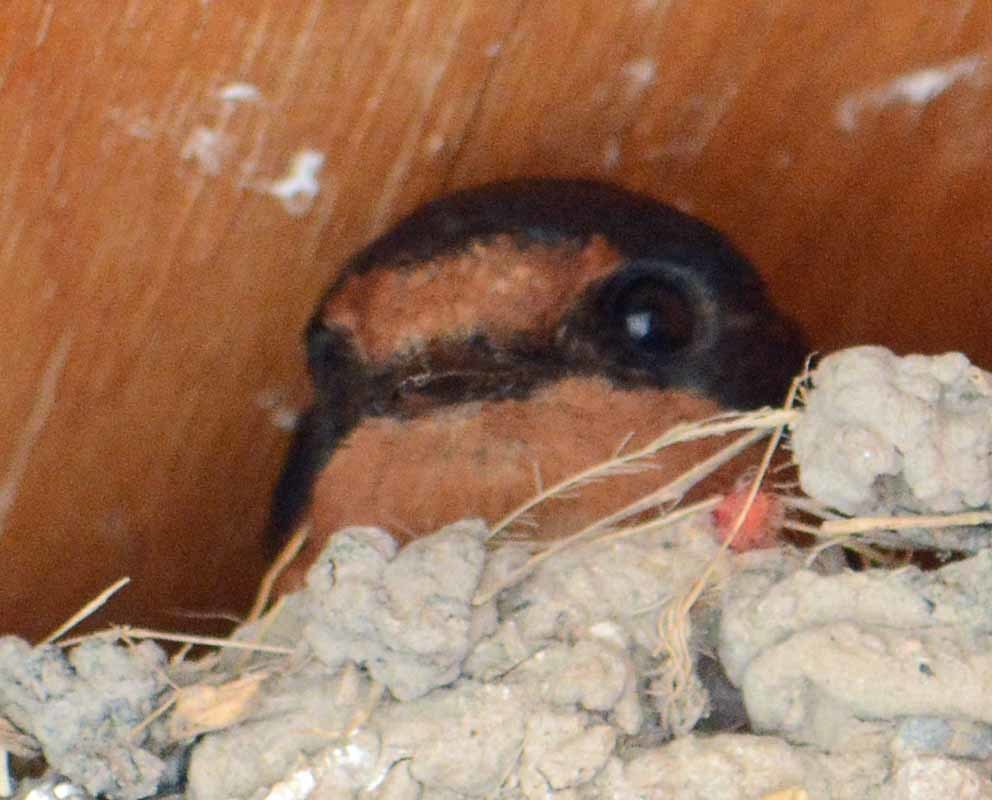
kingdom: Animalia
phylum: Chordata
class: Aves
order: Passeriformes
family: Hirundinidae
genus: Hirundo
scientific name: Hirundo rustica
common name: Barn swallow
